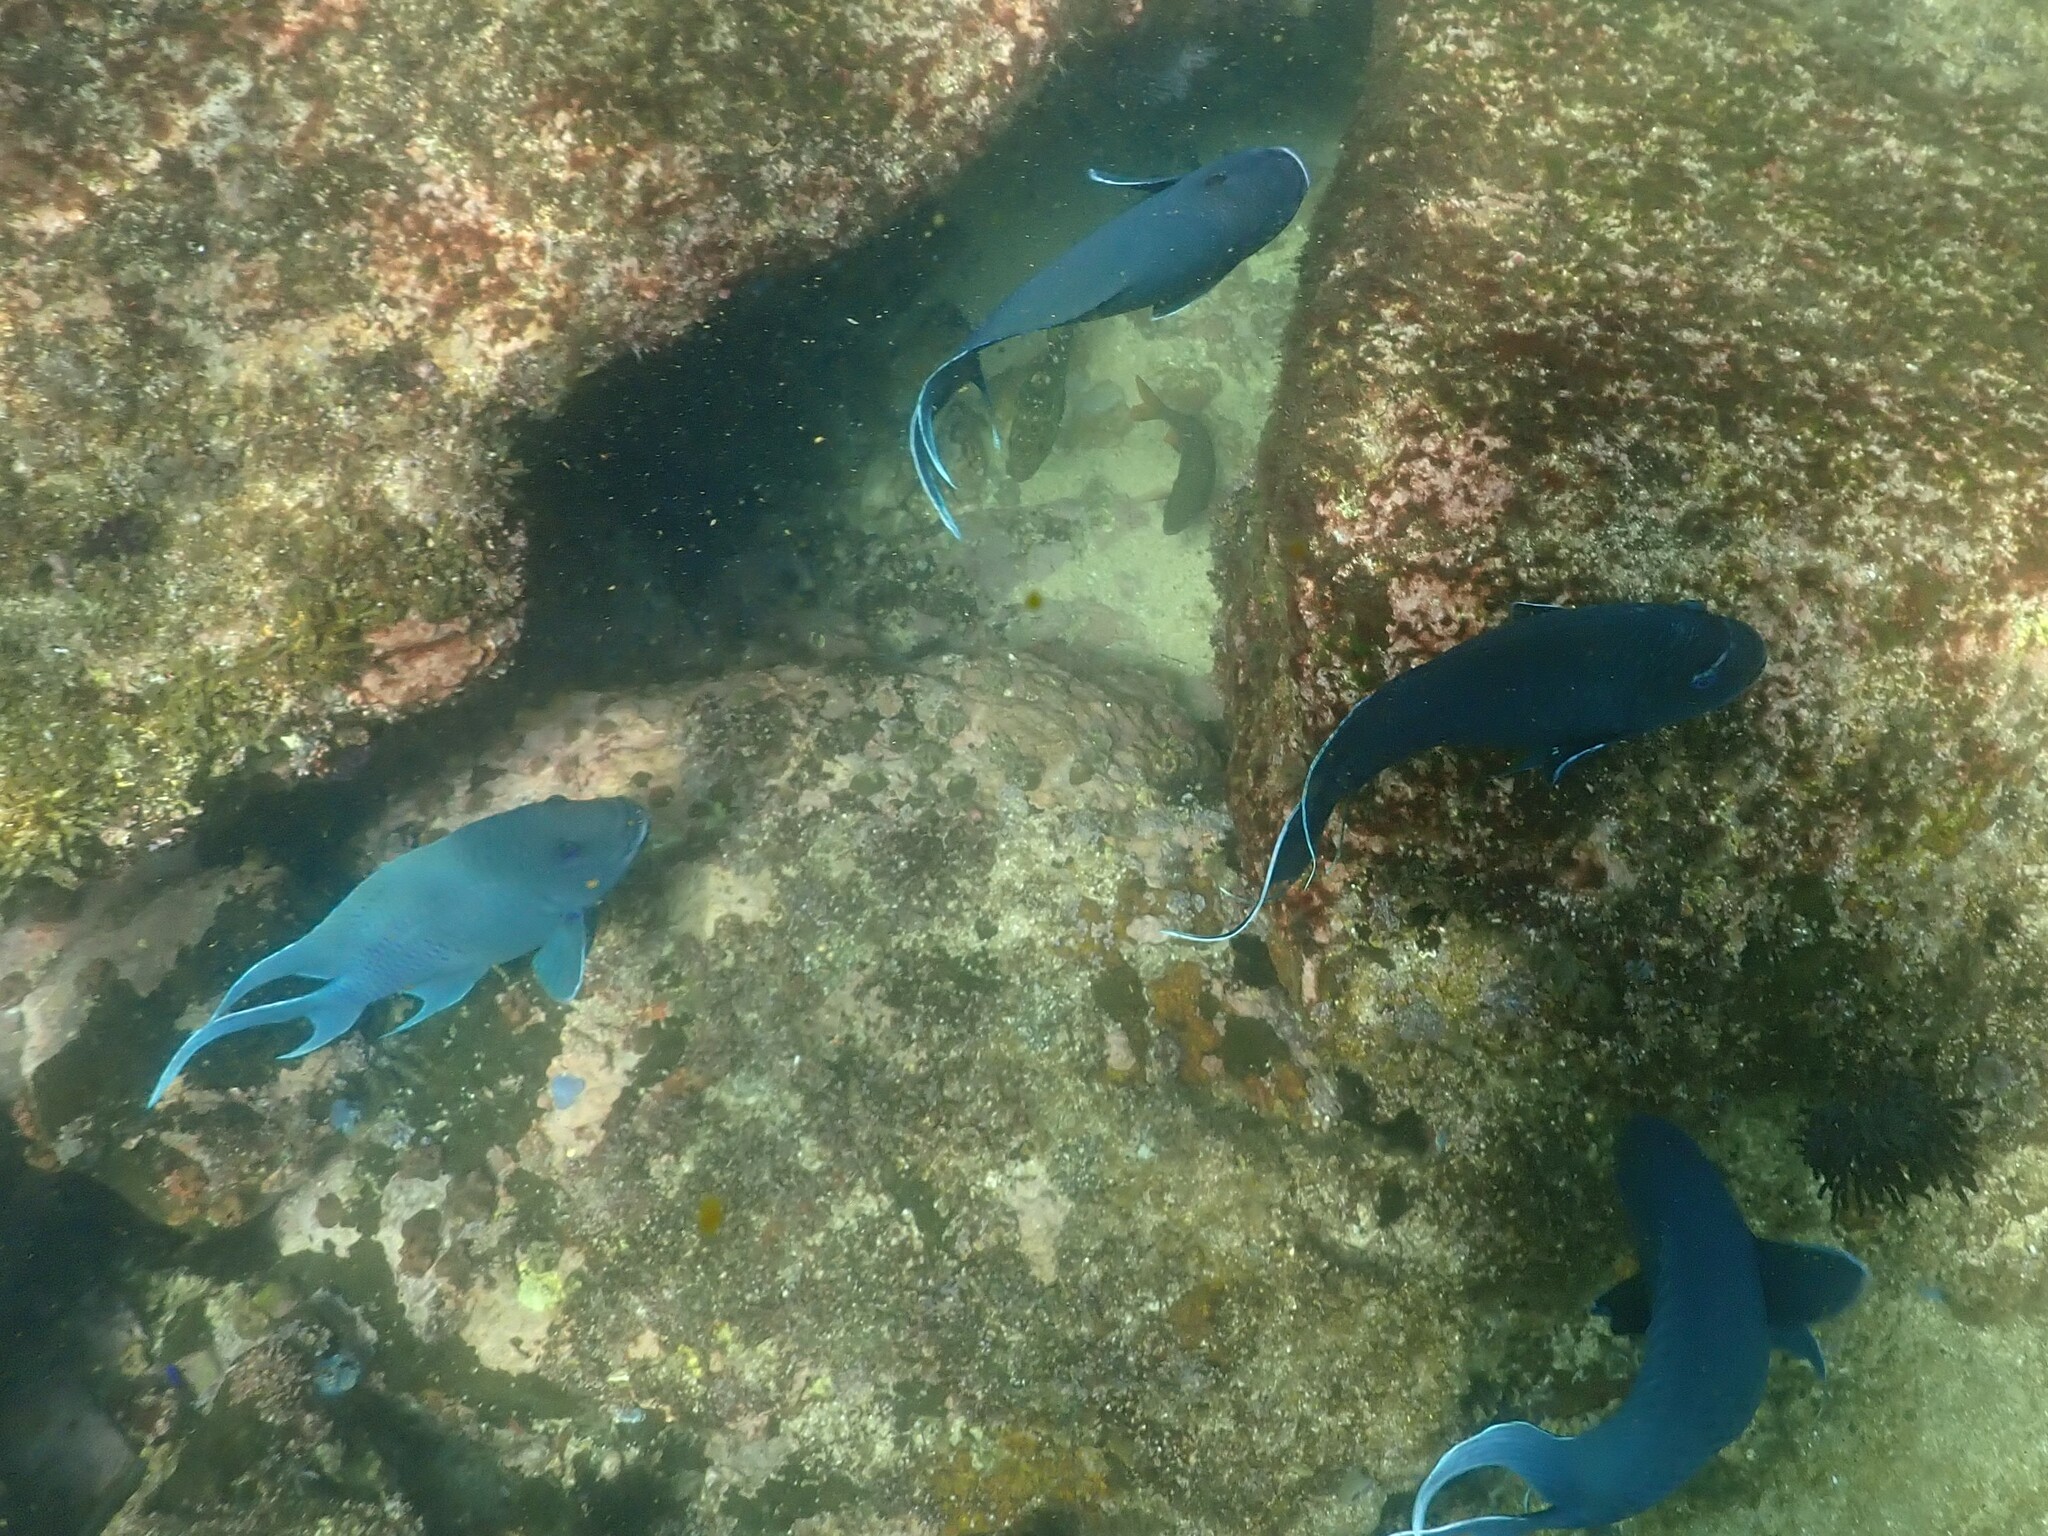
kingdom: Animalia
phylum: Chordata
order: Perciformes
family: Pomacentridae
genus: Microspathodon
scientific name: Microspathodon dorsalis
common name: Giant damselfish
